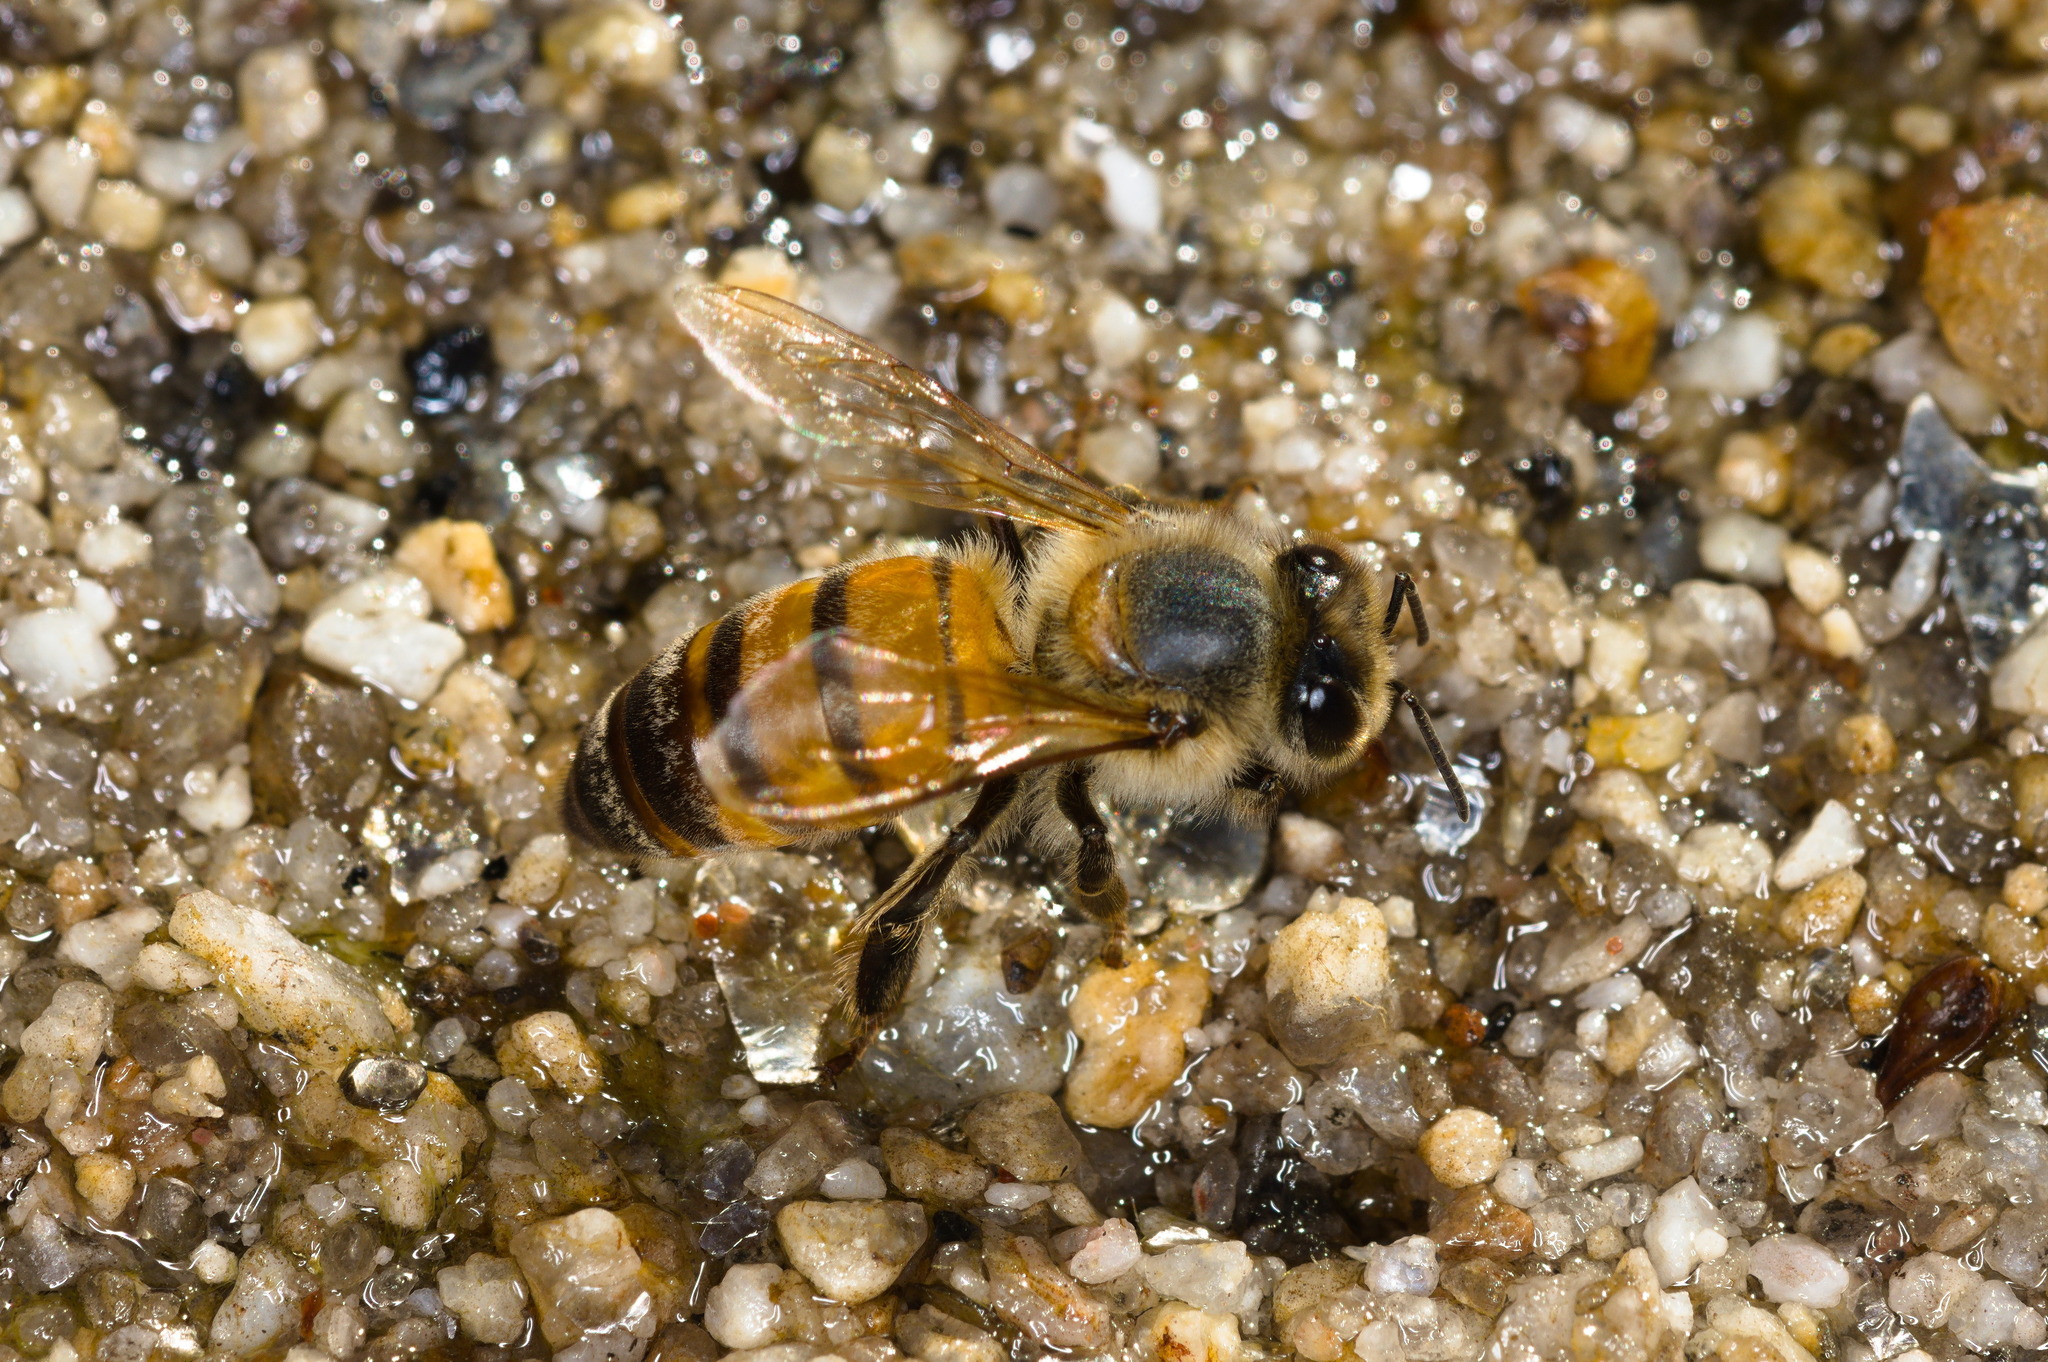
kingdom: Animalia
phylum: Arthropoda
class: Insecta
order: Hymenoptera
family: Apidae
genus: Apis
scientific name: Apis mellifera
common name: Honey bee
